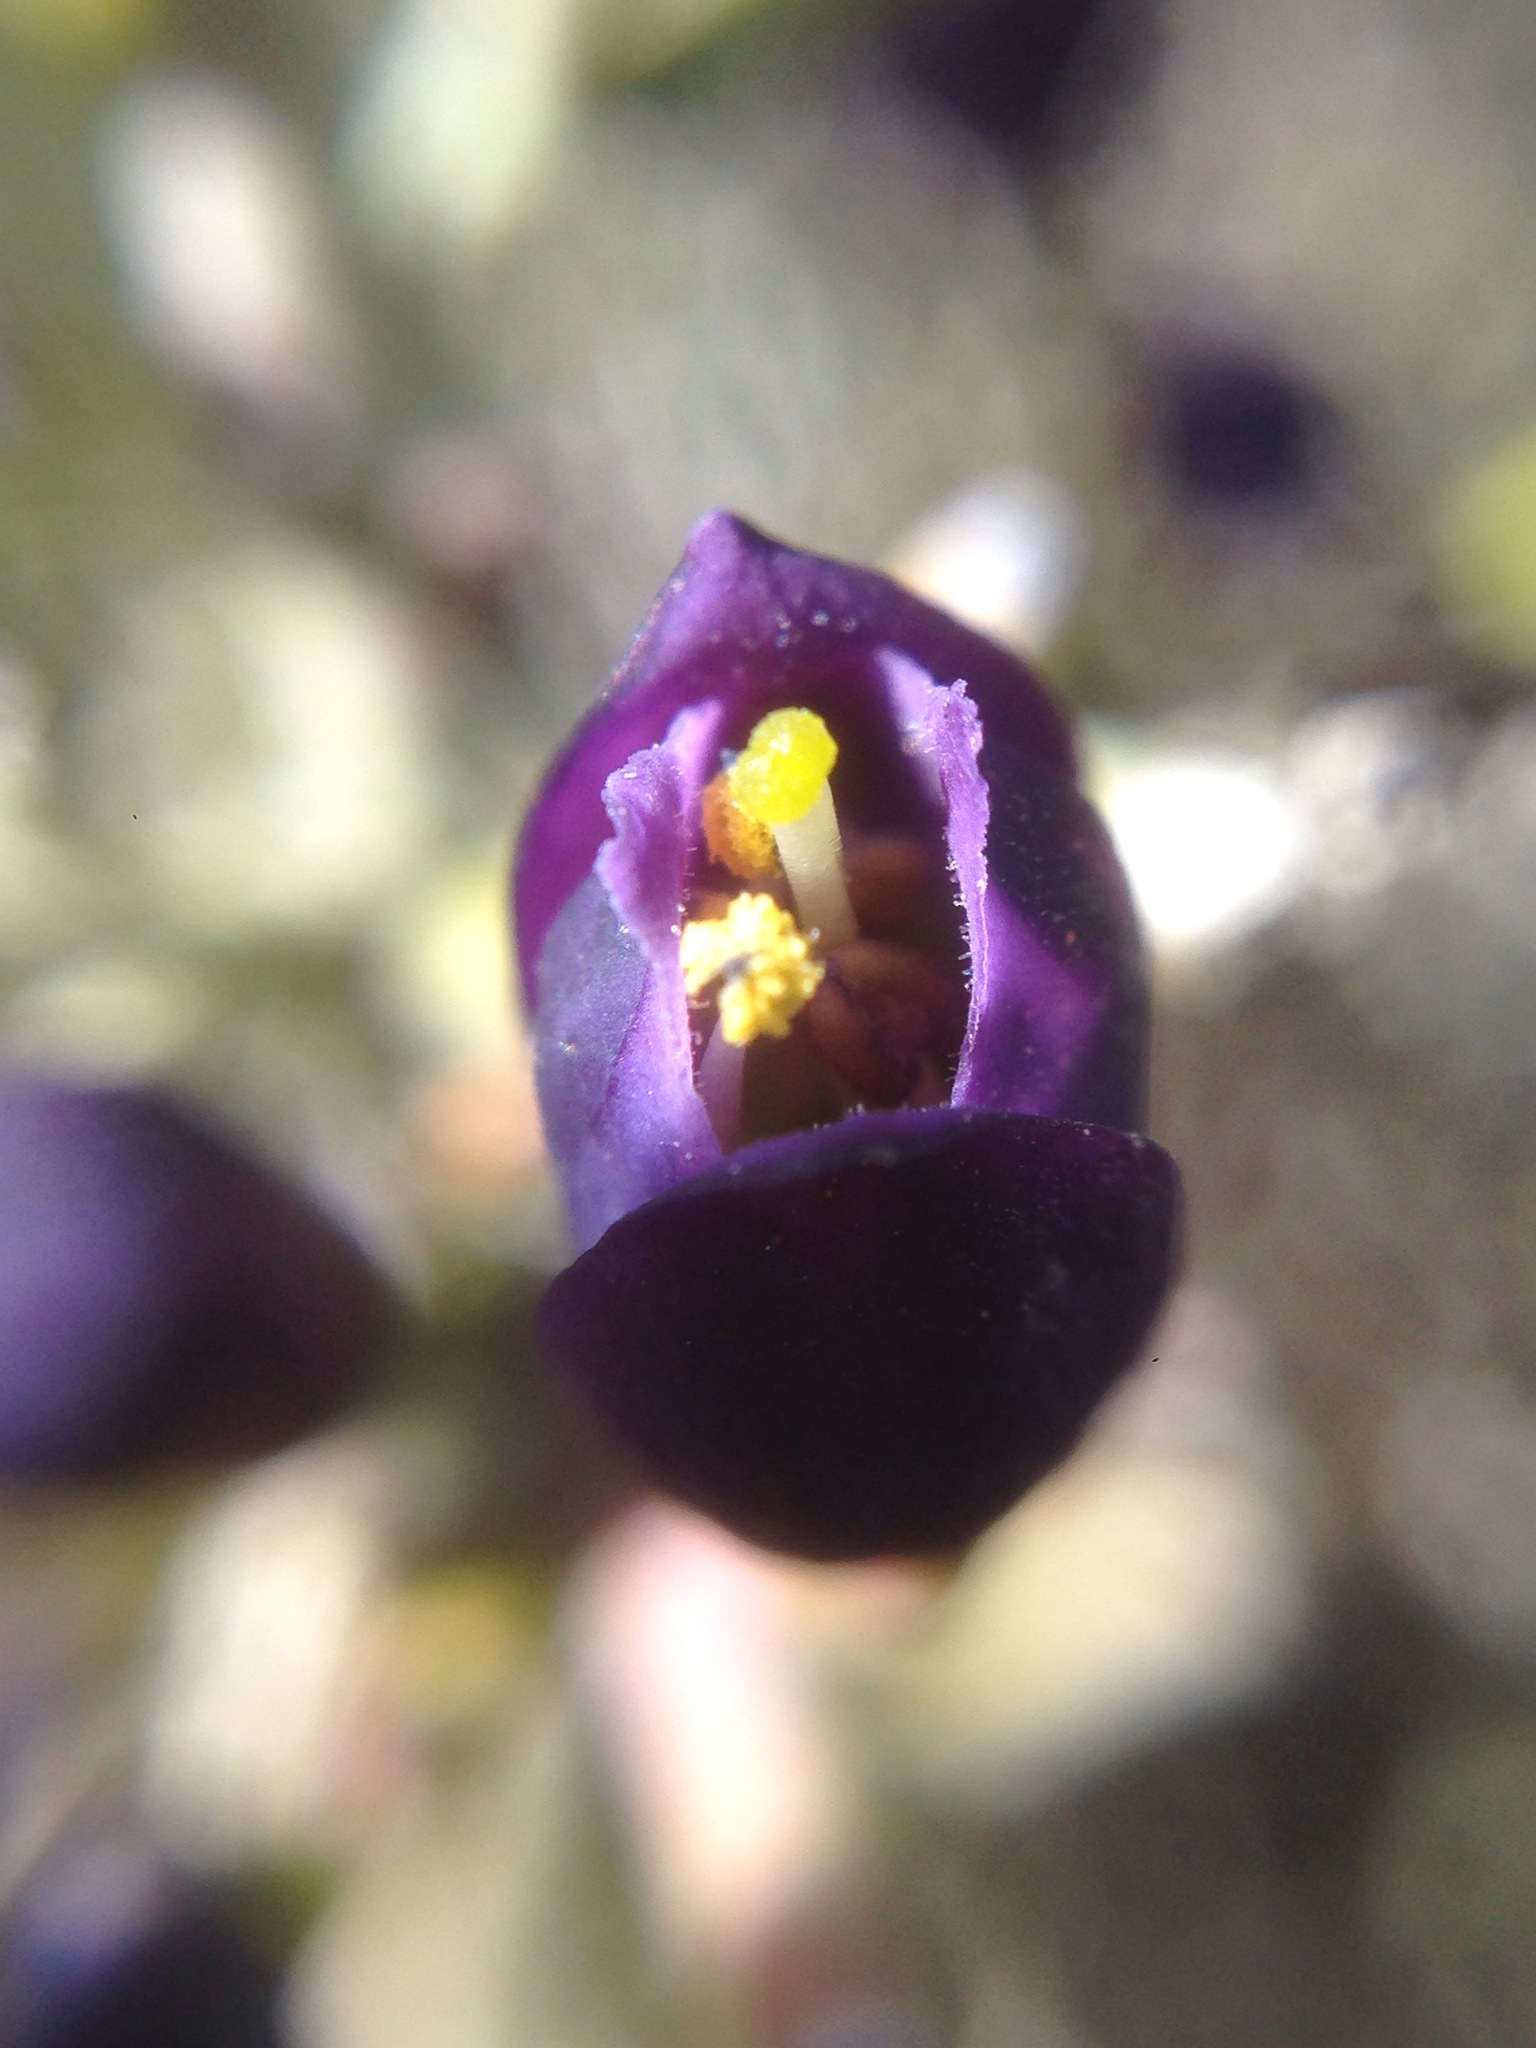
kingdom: Plantae
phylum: Tracheophyta
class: Magnoliopsida
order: Sapindales
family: Rutaceae
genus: Thamnosma
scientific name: Thamnosma montana
